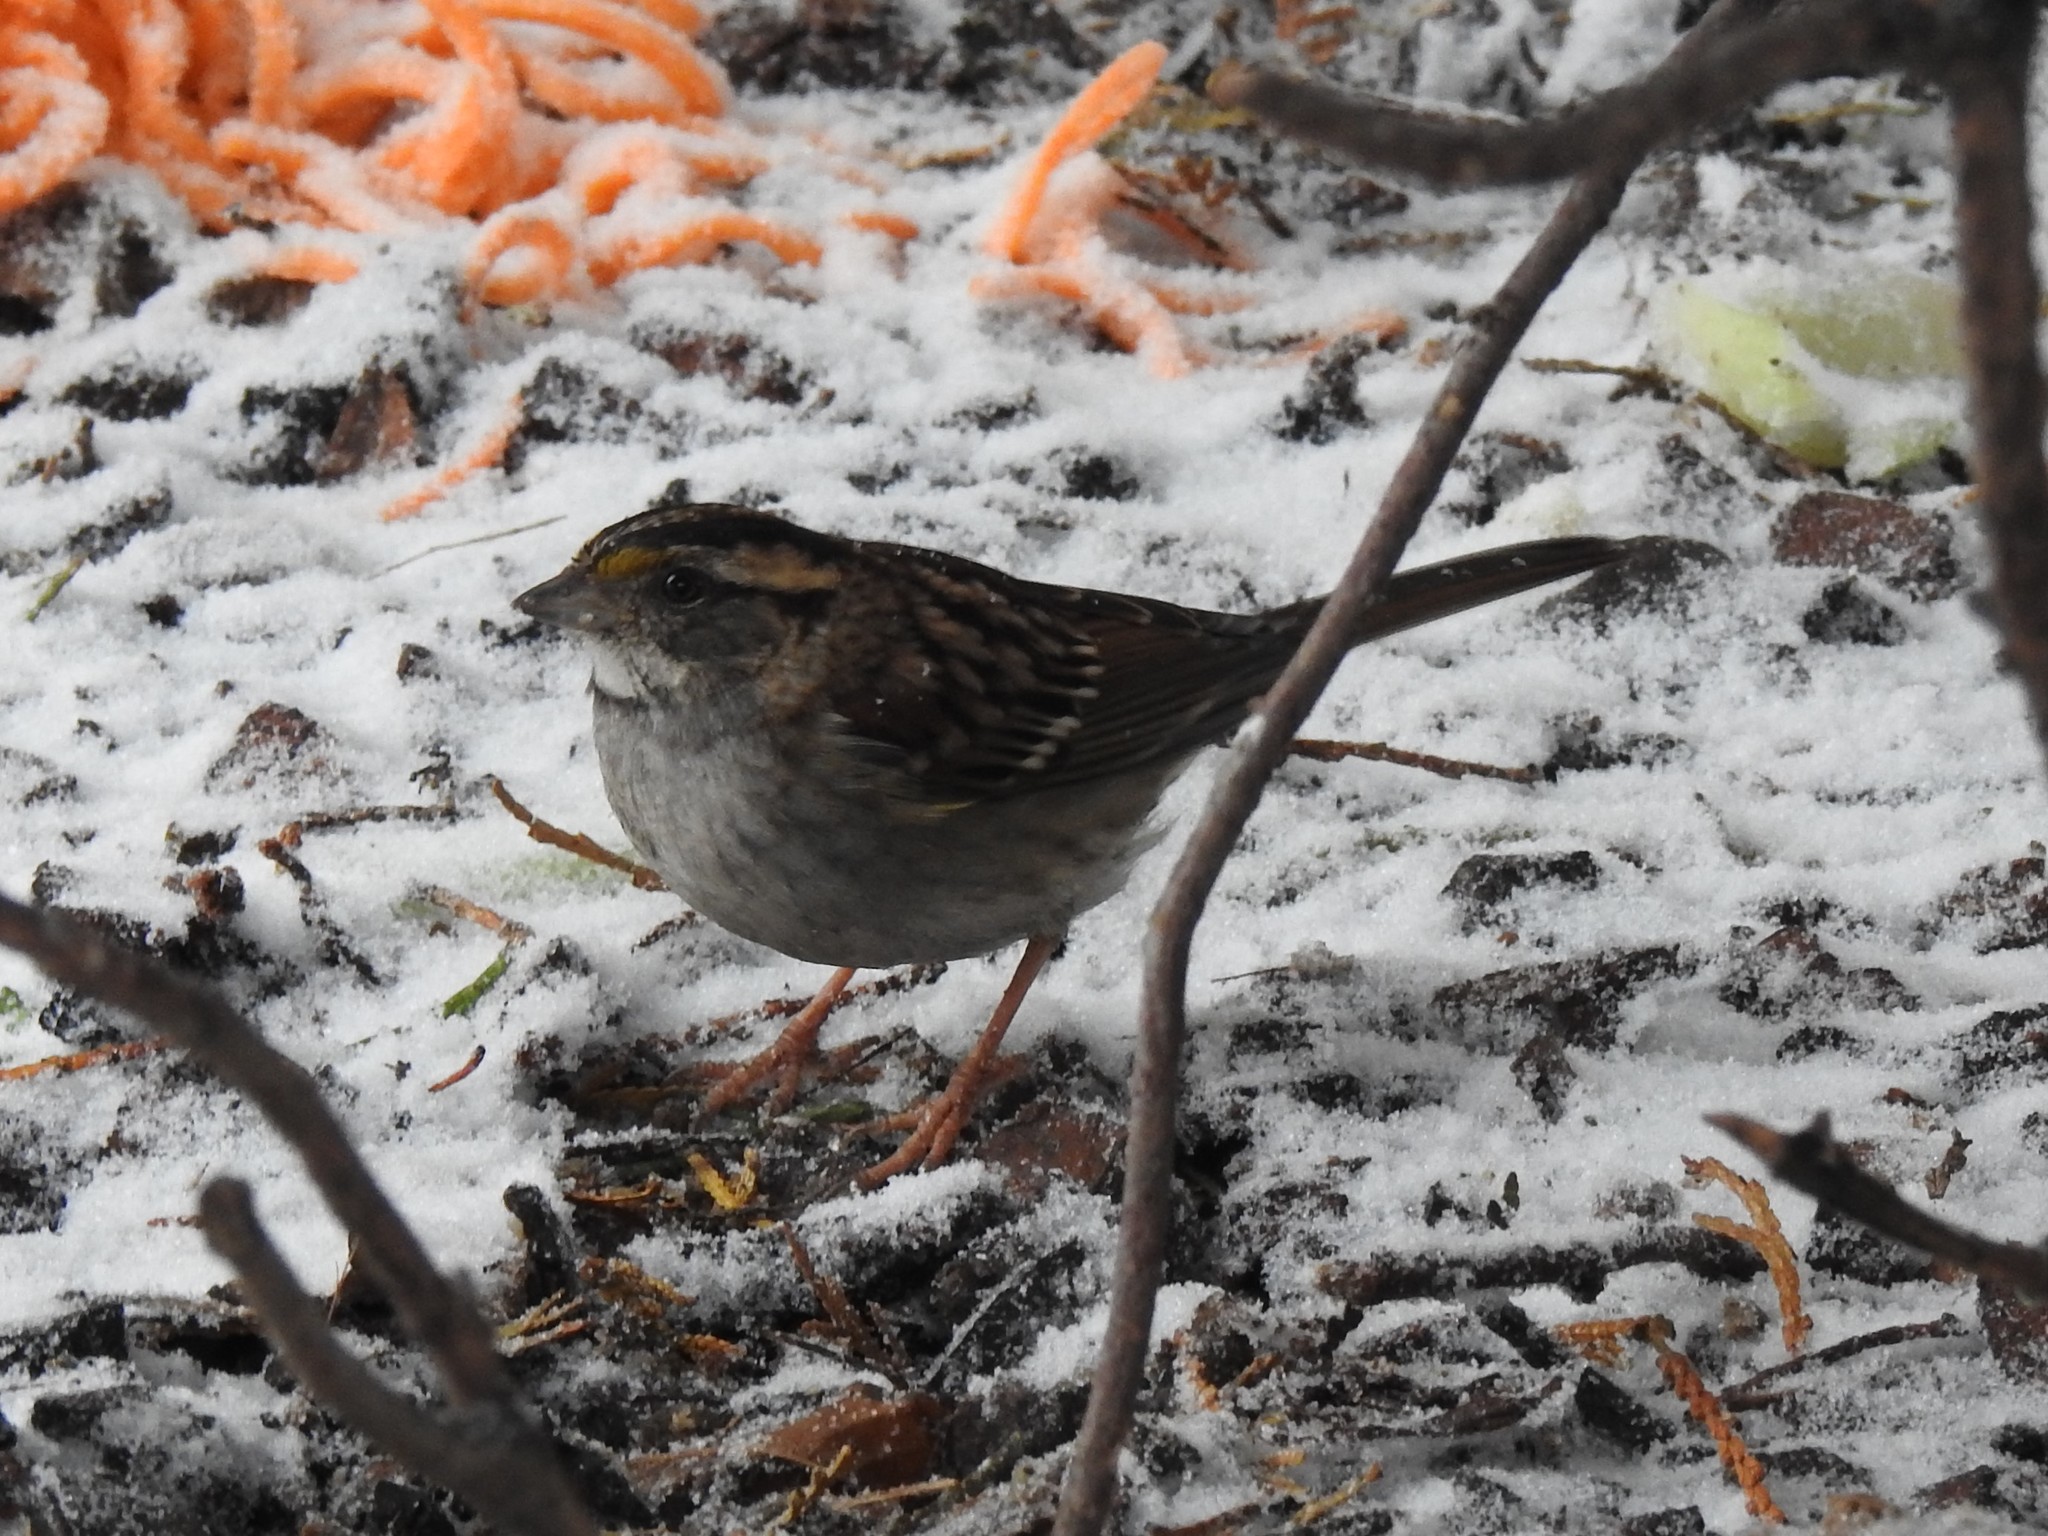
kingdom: Animalia
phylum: Chordata
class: Aves
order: Passeriformes
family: Passerellidae
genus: Zonotrichia
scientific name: Zonotrichia albicollis
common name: White-throated sparrow
